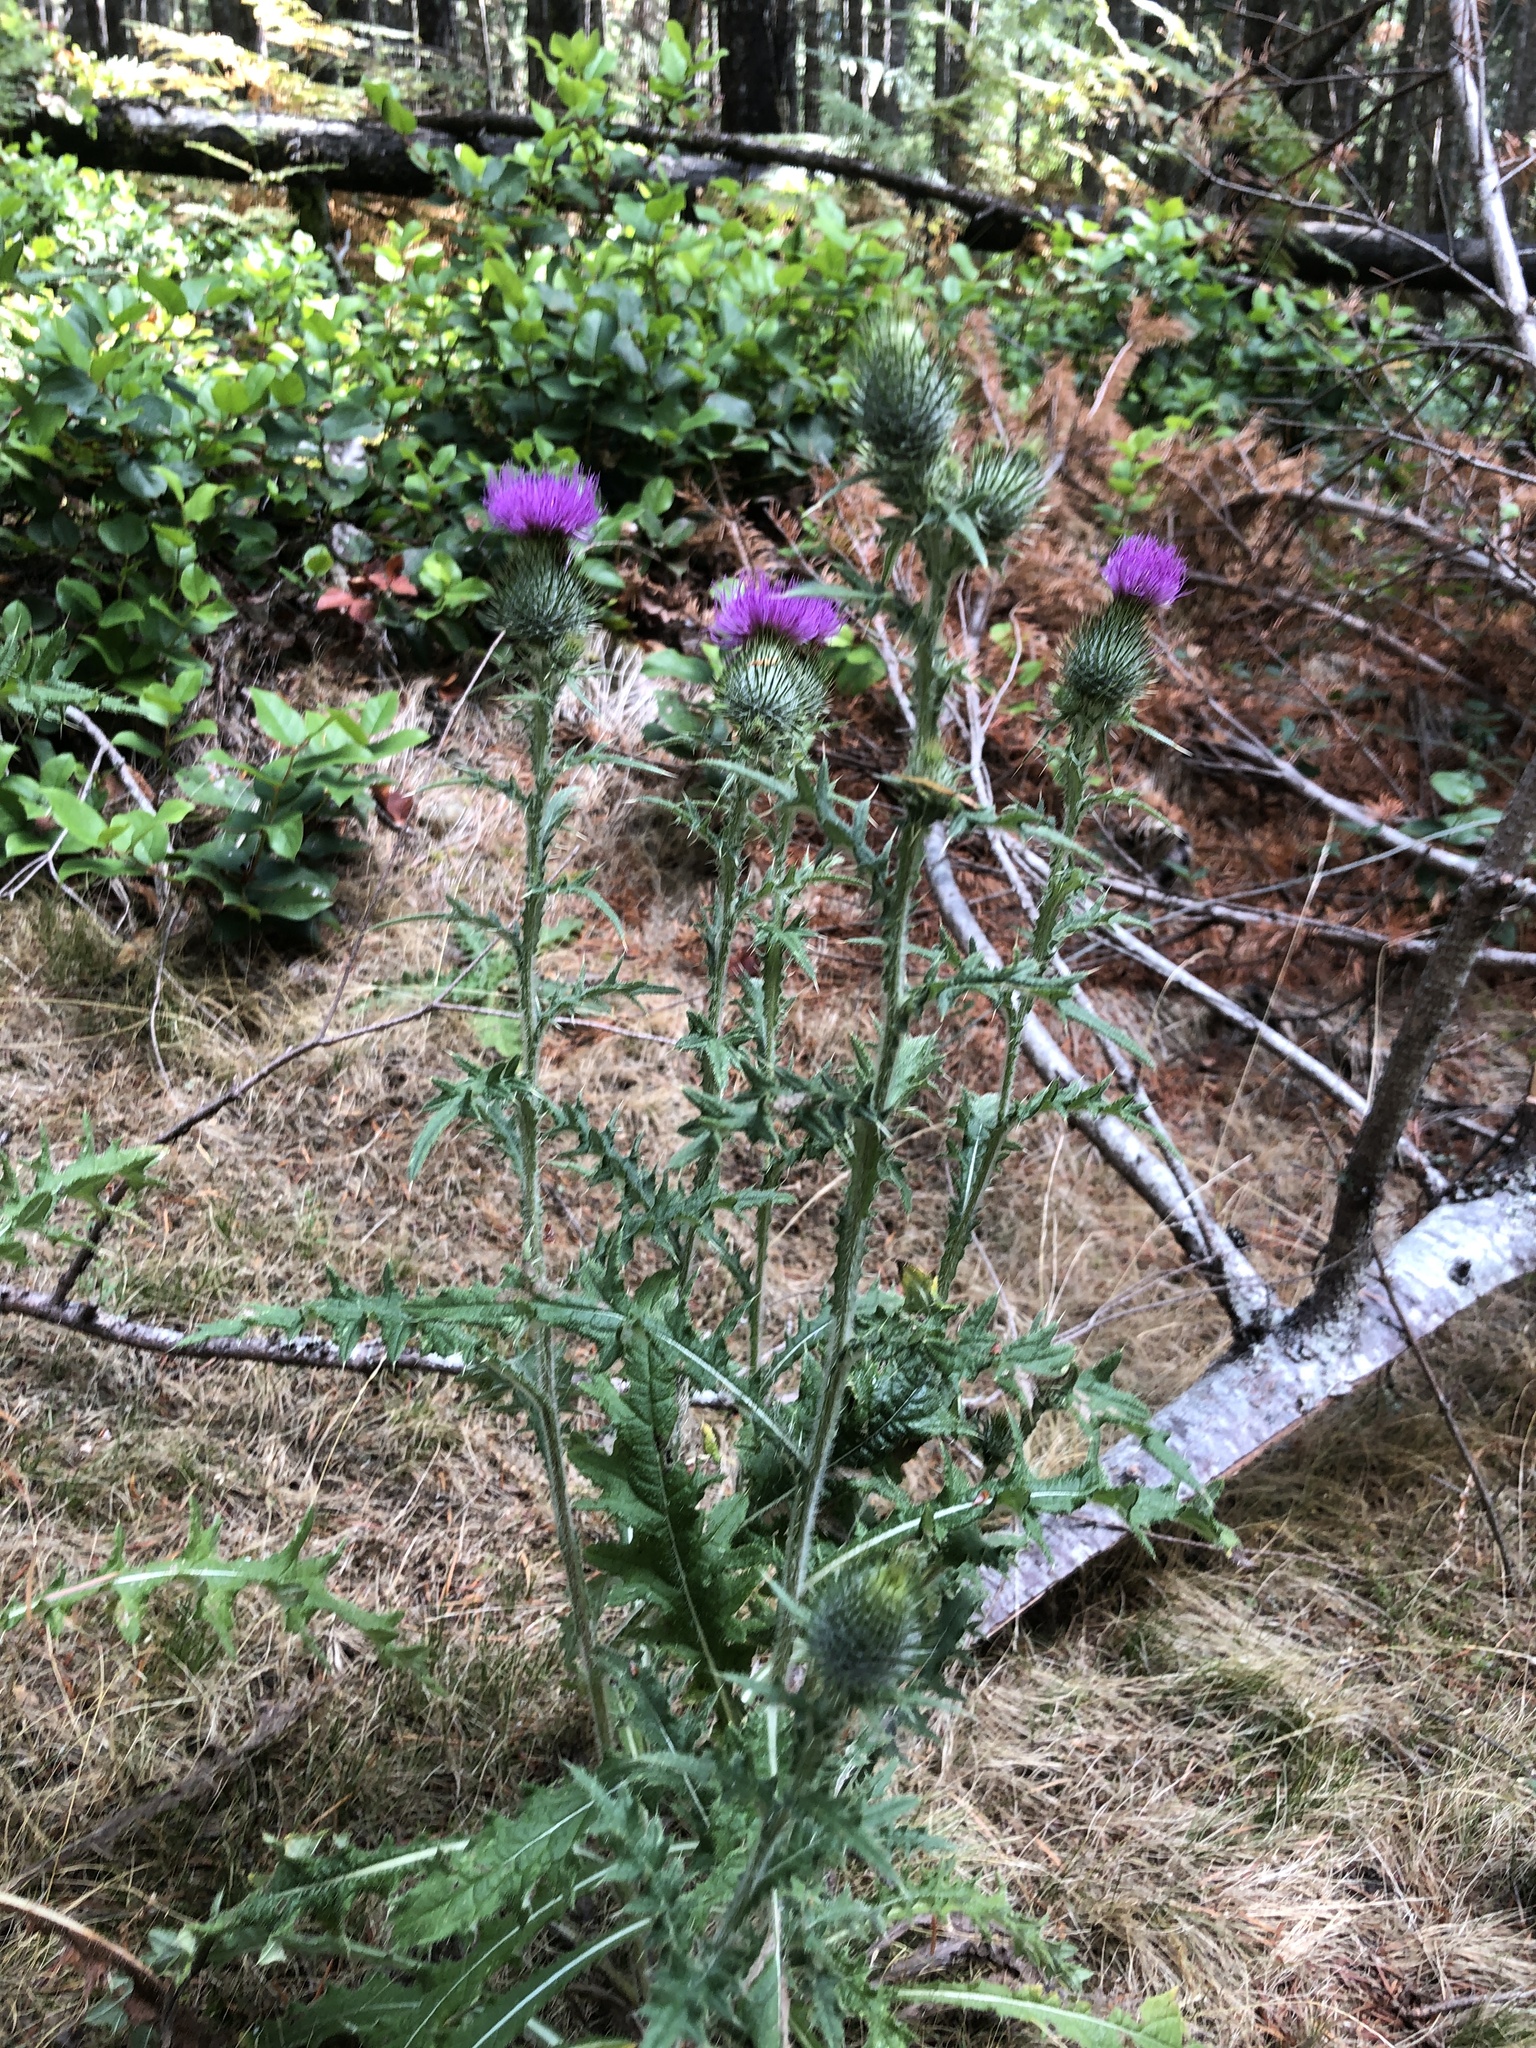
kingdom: Plantae
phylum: Tracheophyta
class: Magnoliopsida
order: Asterales
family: Asteraceae
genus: Cirsium
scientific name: Cirsium vulgare
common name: Bull thistle
